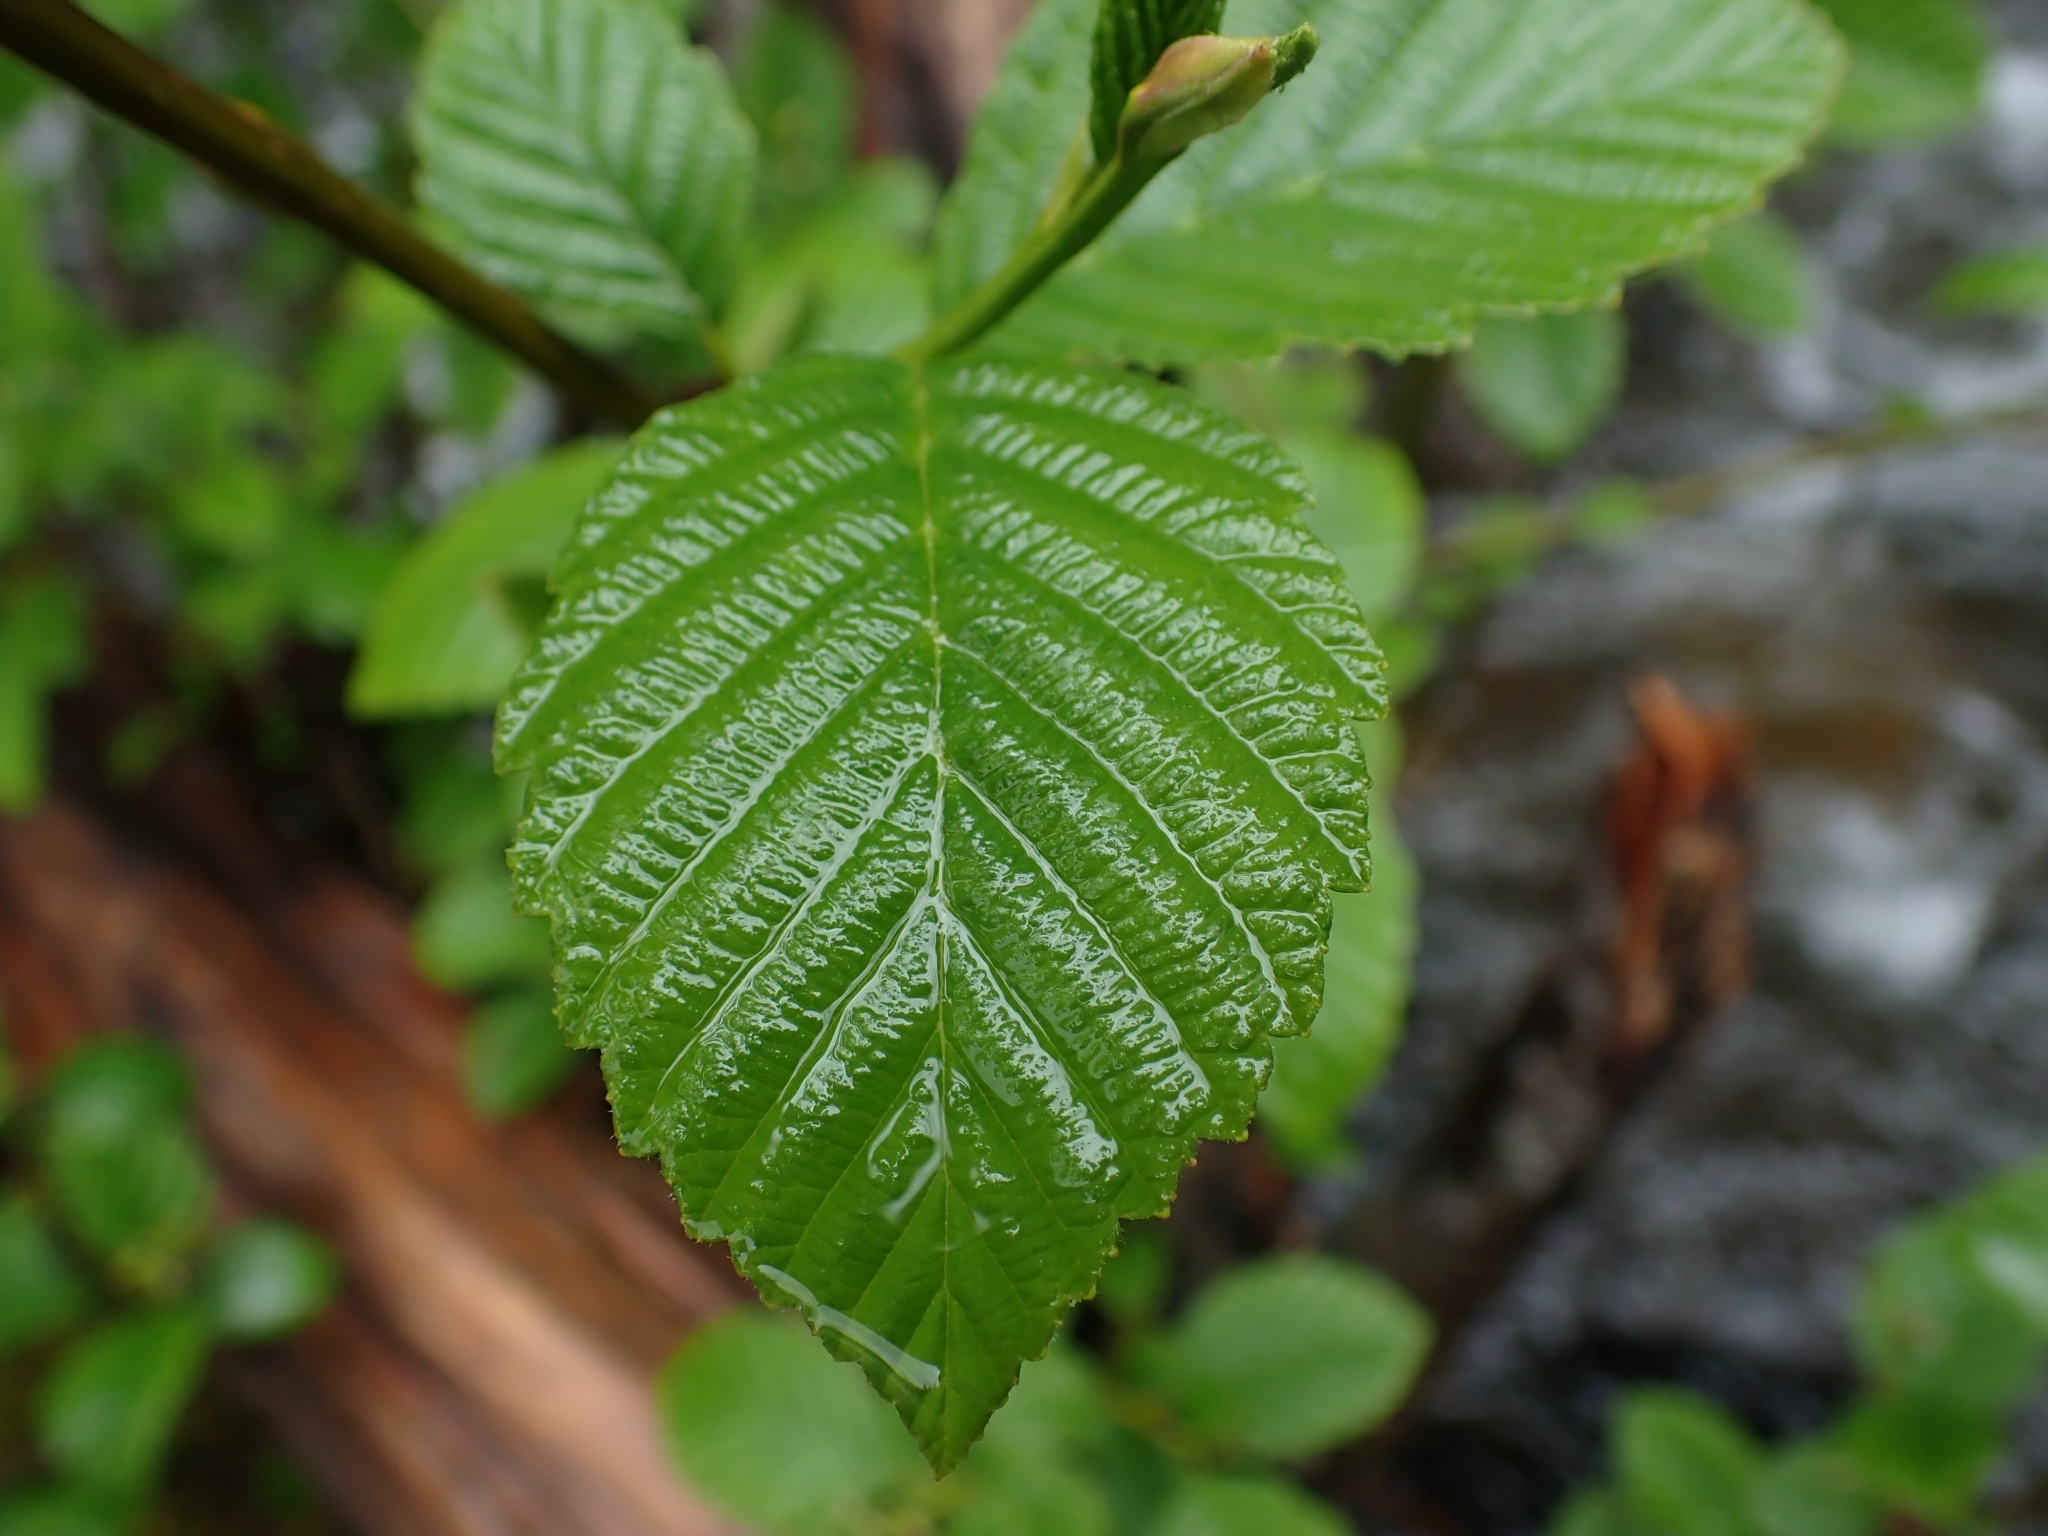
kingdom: Plantae
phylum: Tracheophyta
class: Magnoliopsida
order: Fagales
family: Betulaceae
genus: Alnus
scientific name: Alnus rubra
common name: Red alder
